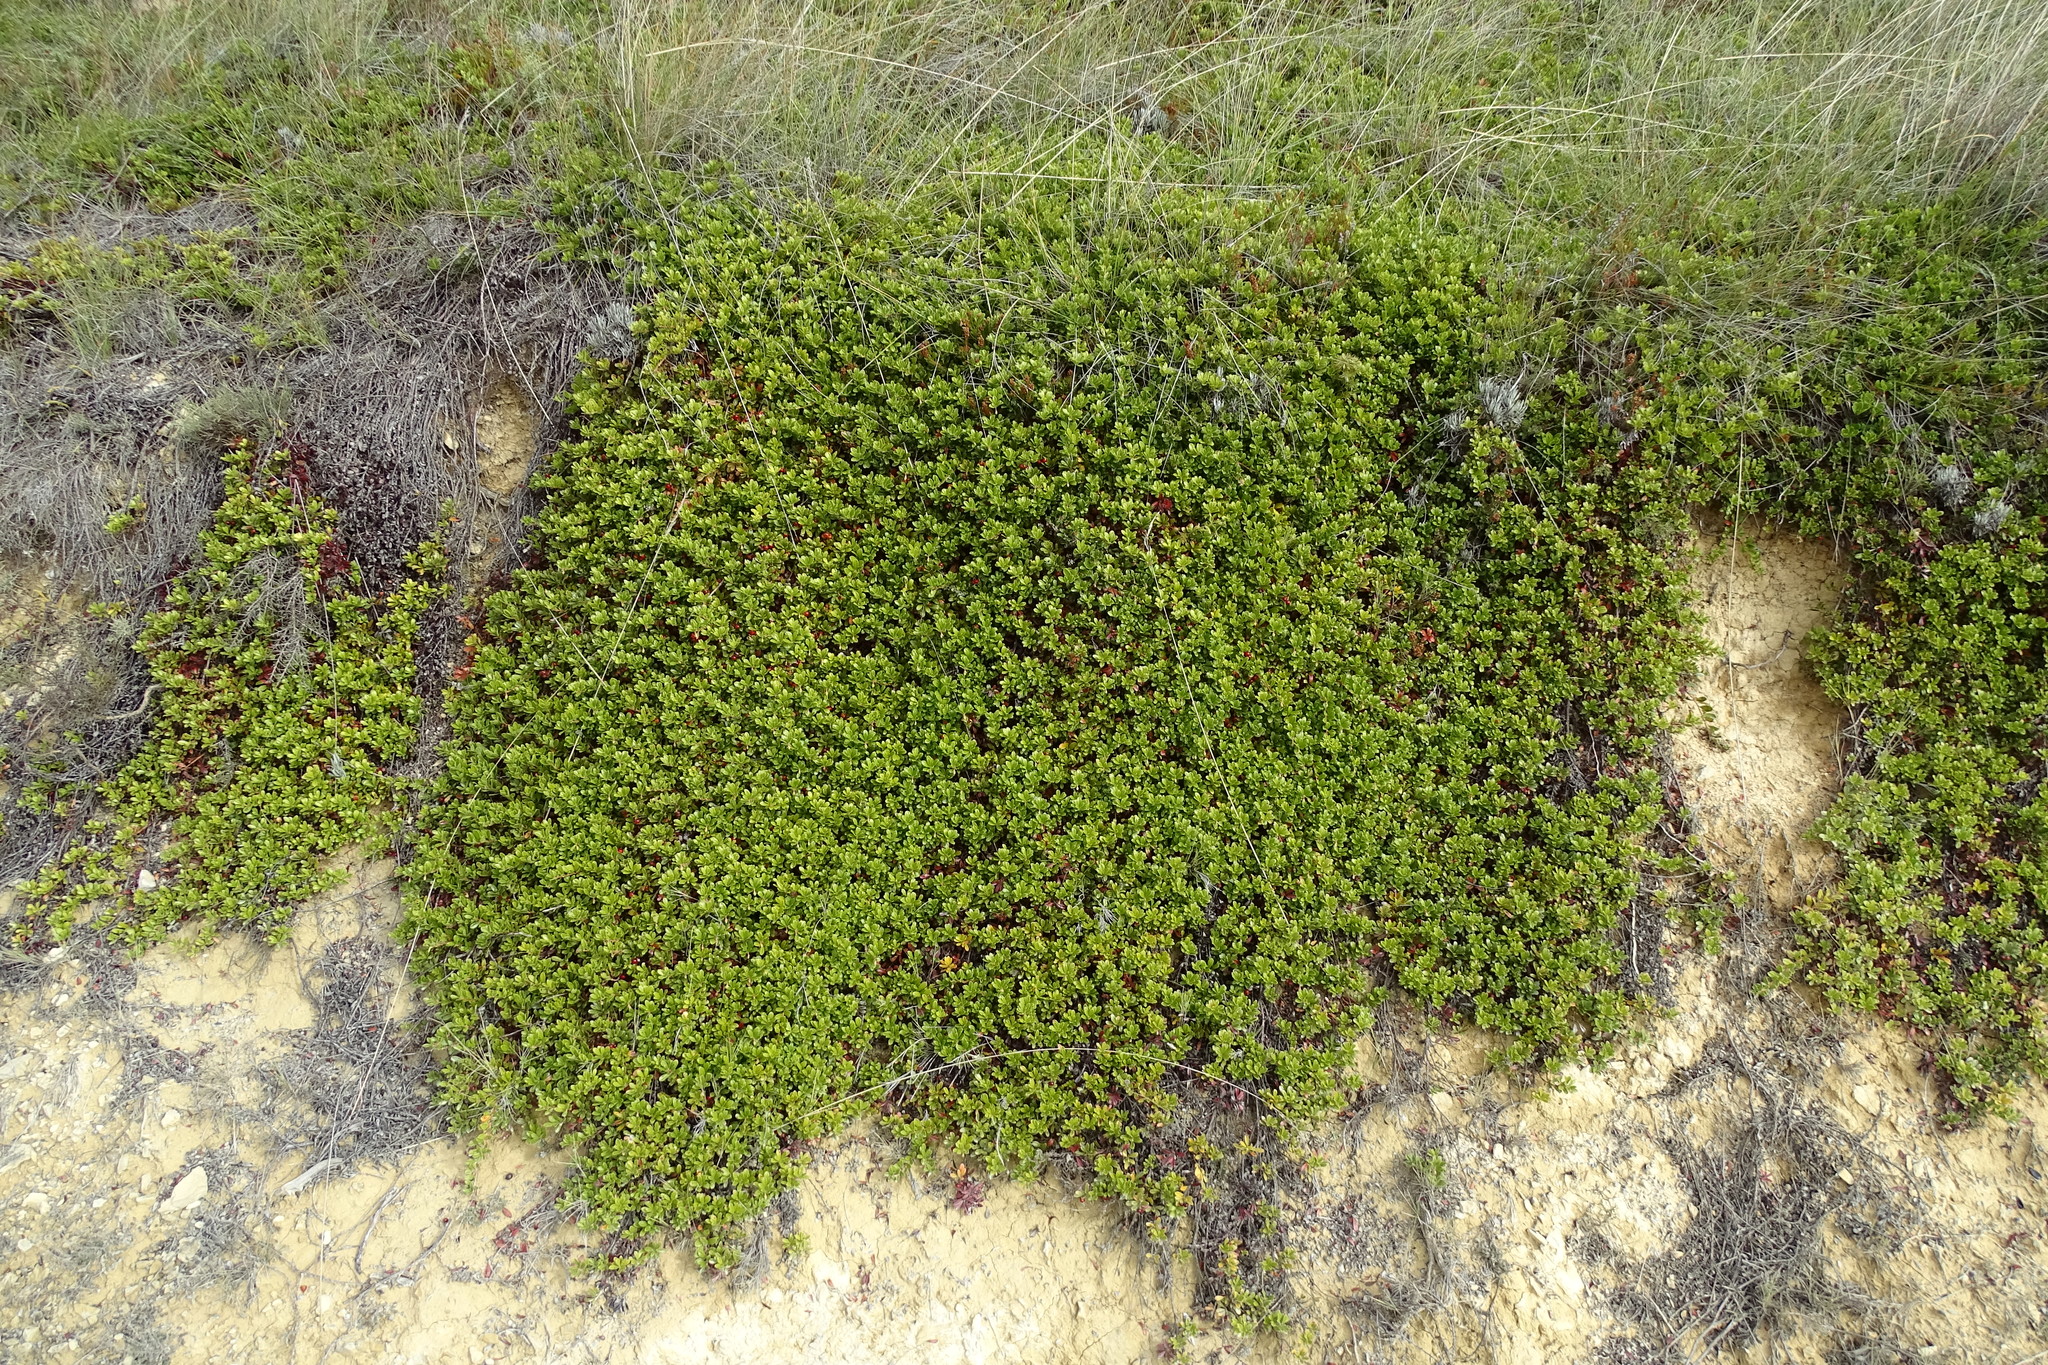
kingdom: Plantae
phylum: Tracheophyta
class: Magnoliopsida
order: Ericales
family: Ericaceae
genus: Arctostaphylos
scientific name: Arctostaphylos uva-ursi
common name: Bearberry
